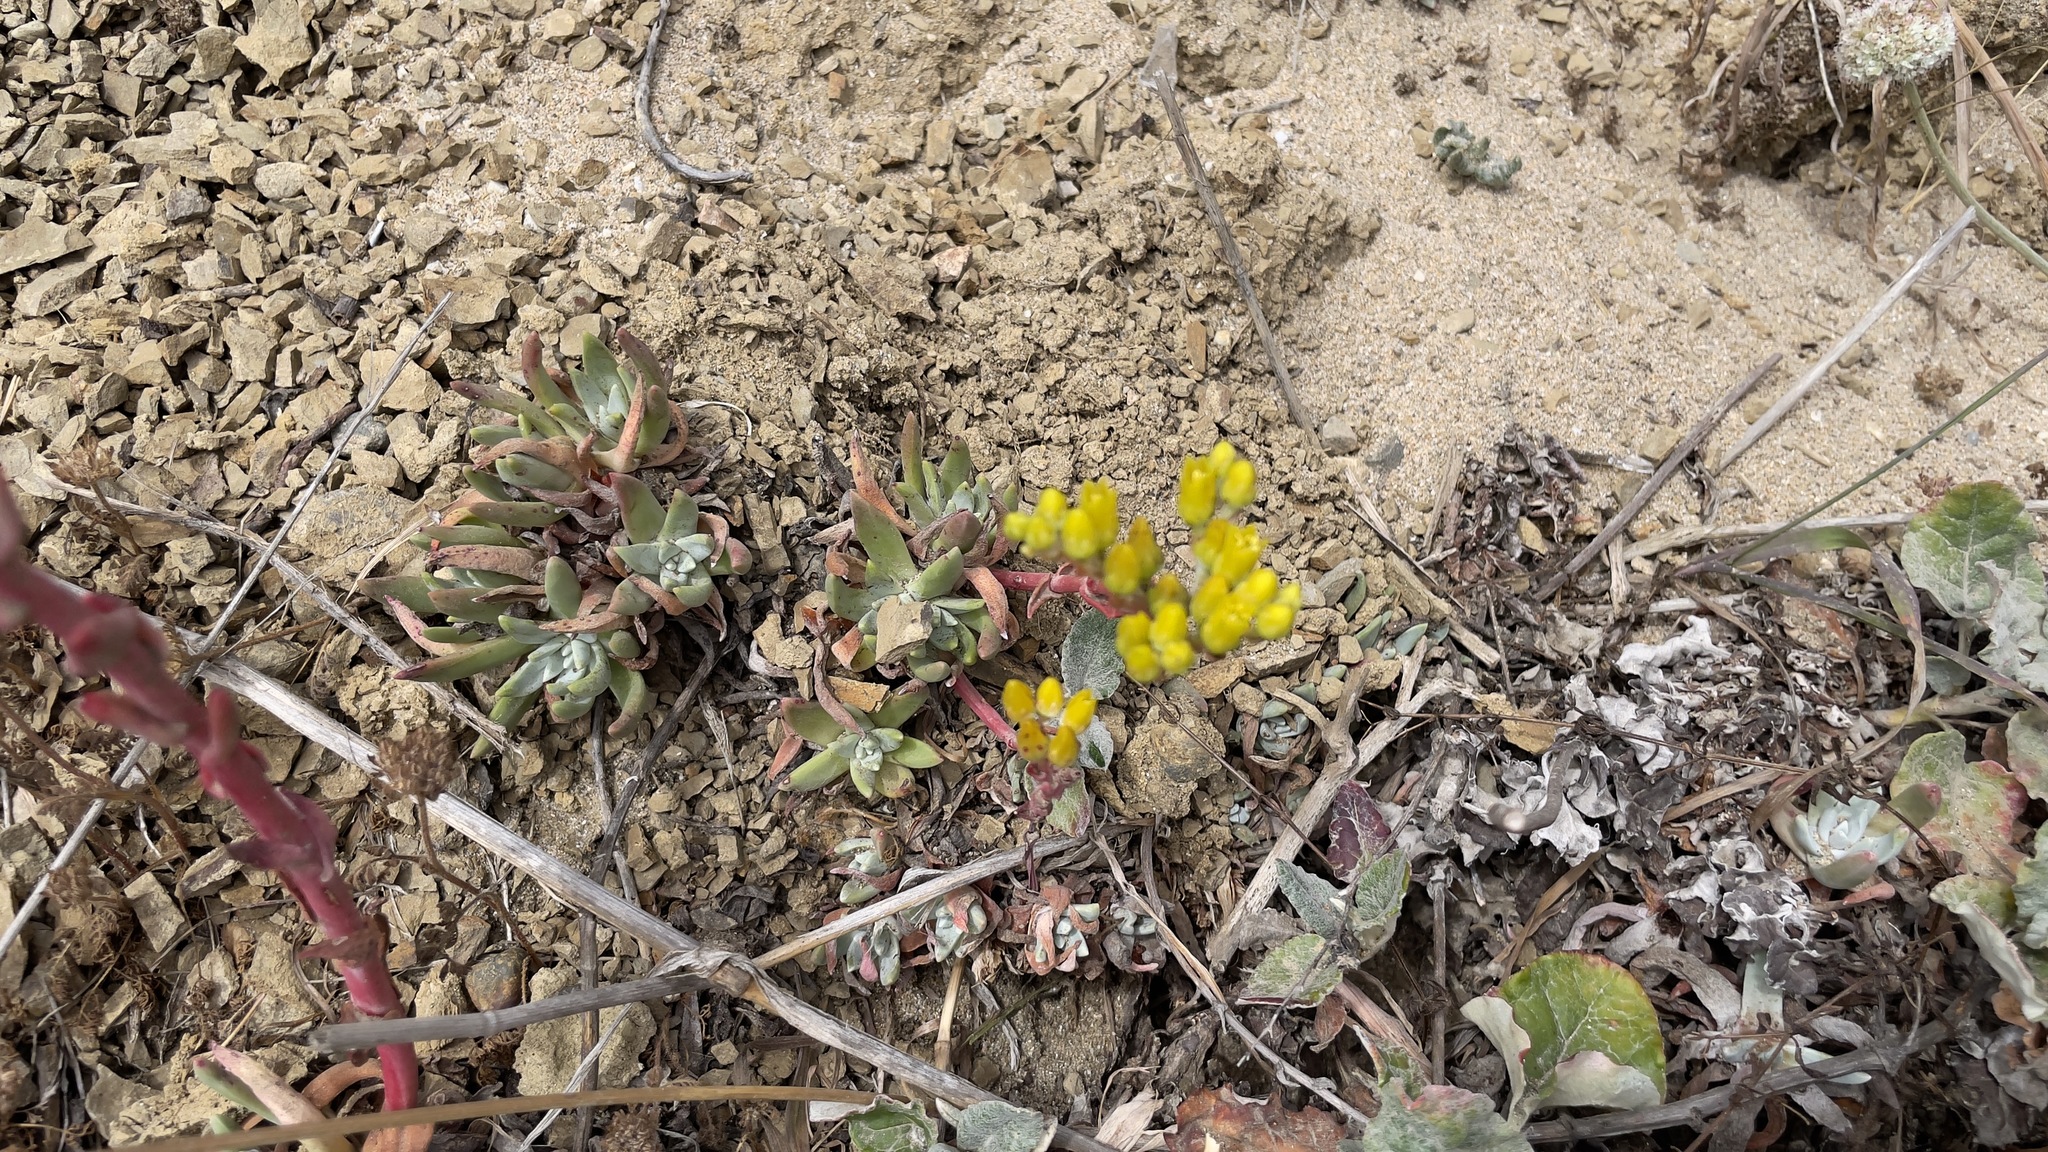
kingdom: Plantae
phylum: Tracheophyta
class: Magnoliopsida
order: Saxifragales
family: Crassulaceae
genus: Dudleya
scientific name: Dudleya caespitosa
